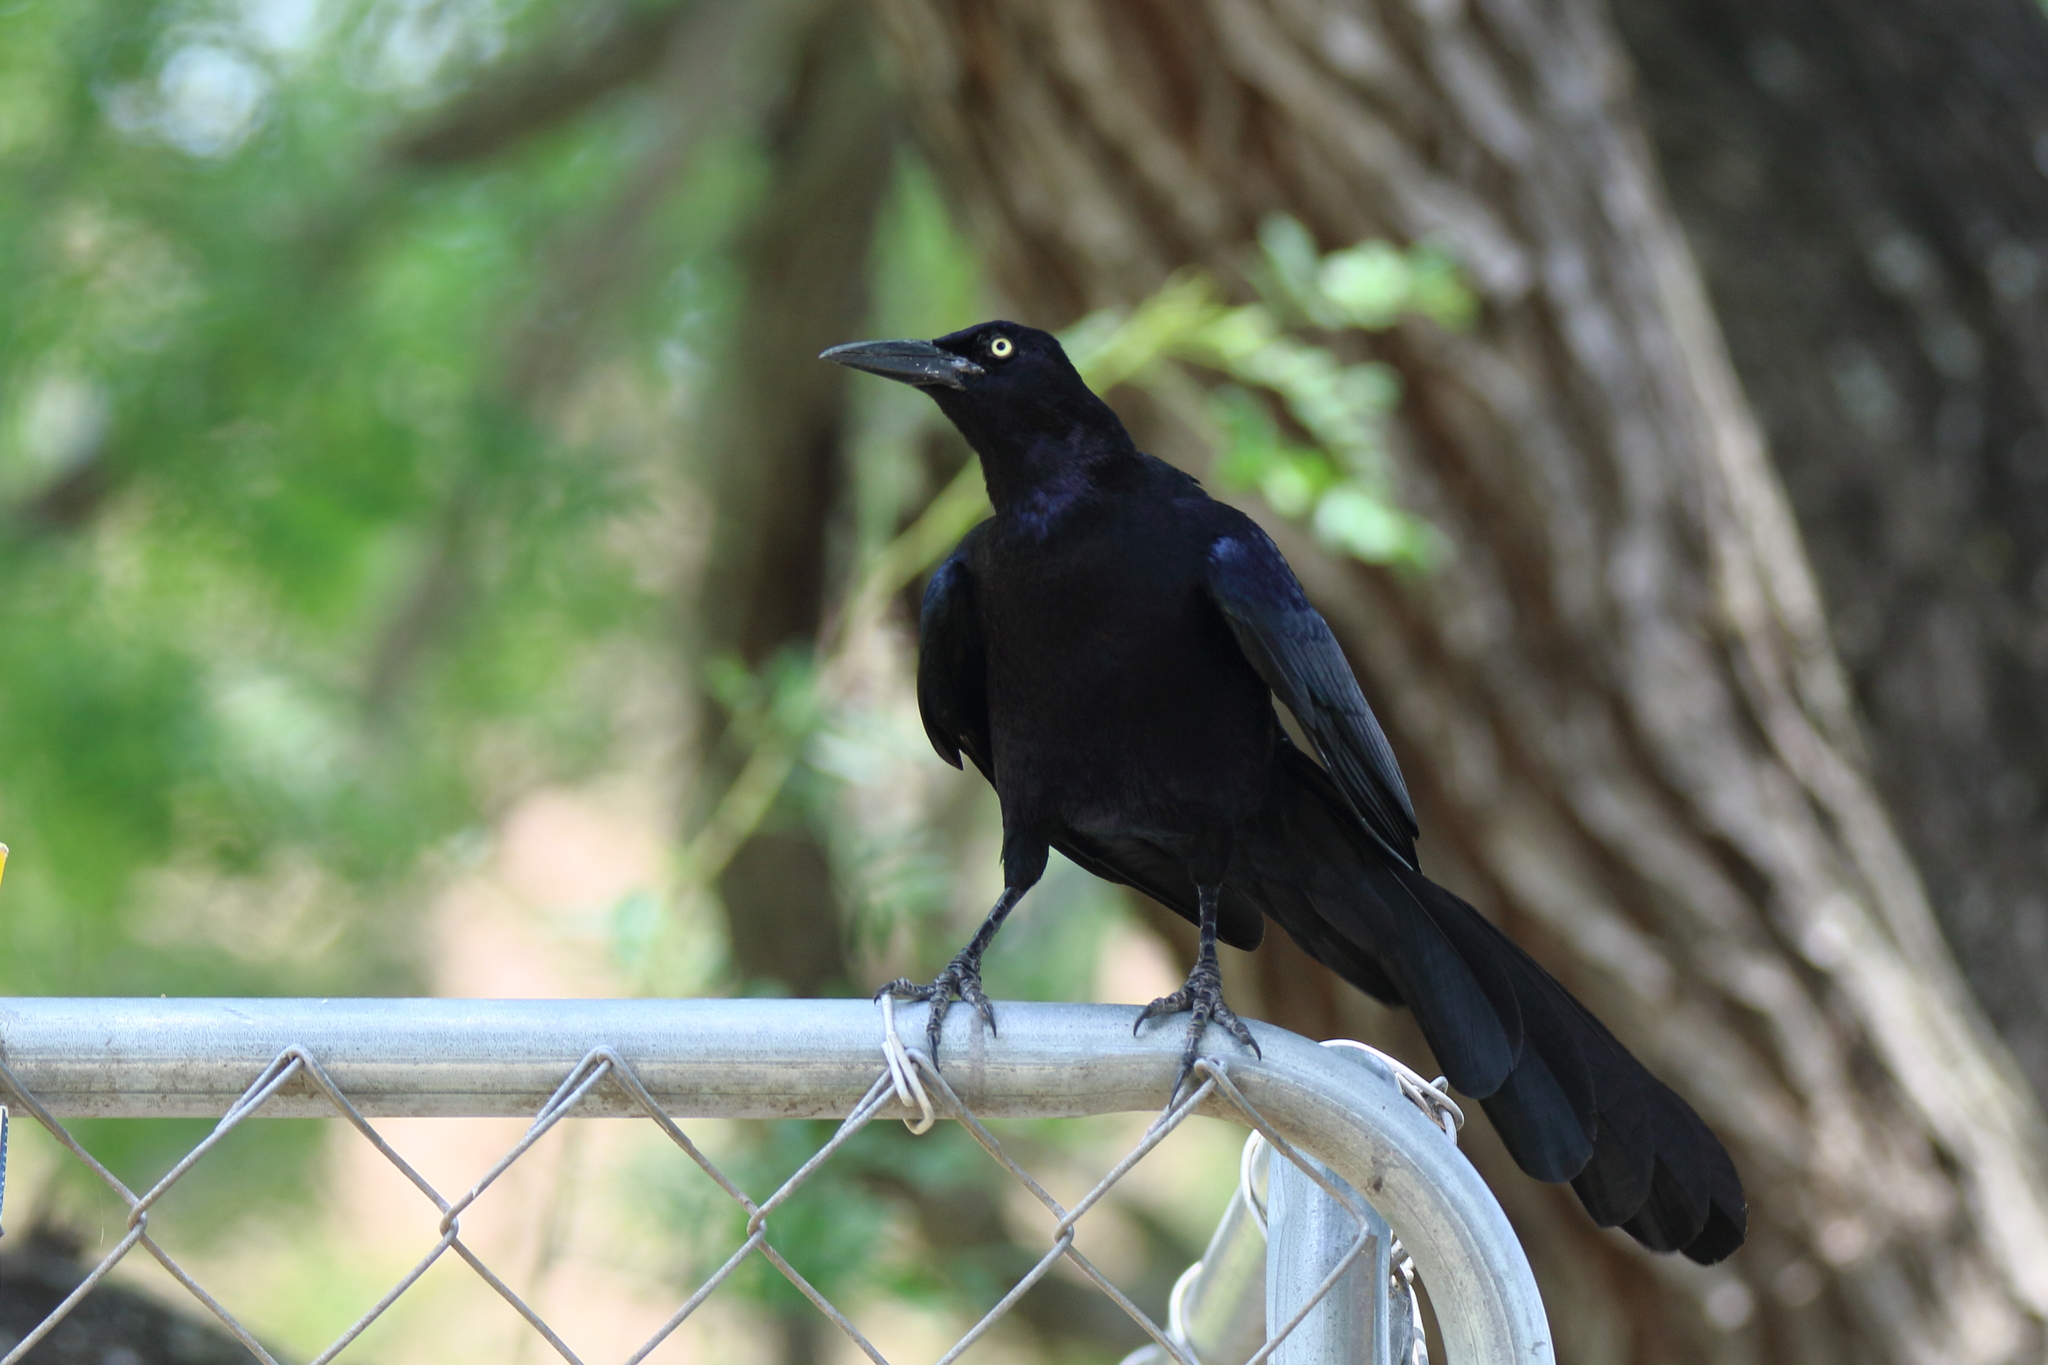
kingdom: Animalia
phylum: Chordata
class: Aves
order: Passeriformes
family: Icteridae
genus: Quiscalus
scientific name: Quiscalus mexicanus
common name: Great-tailed grackle
